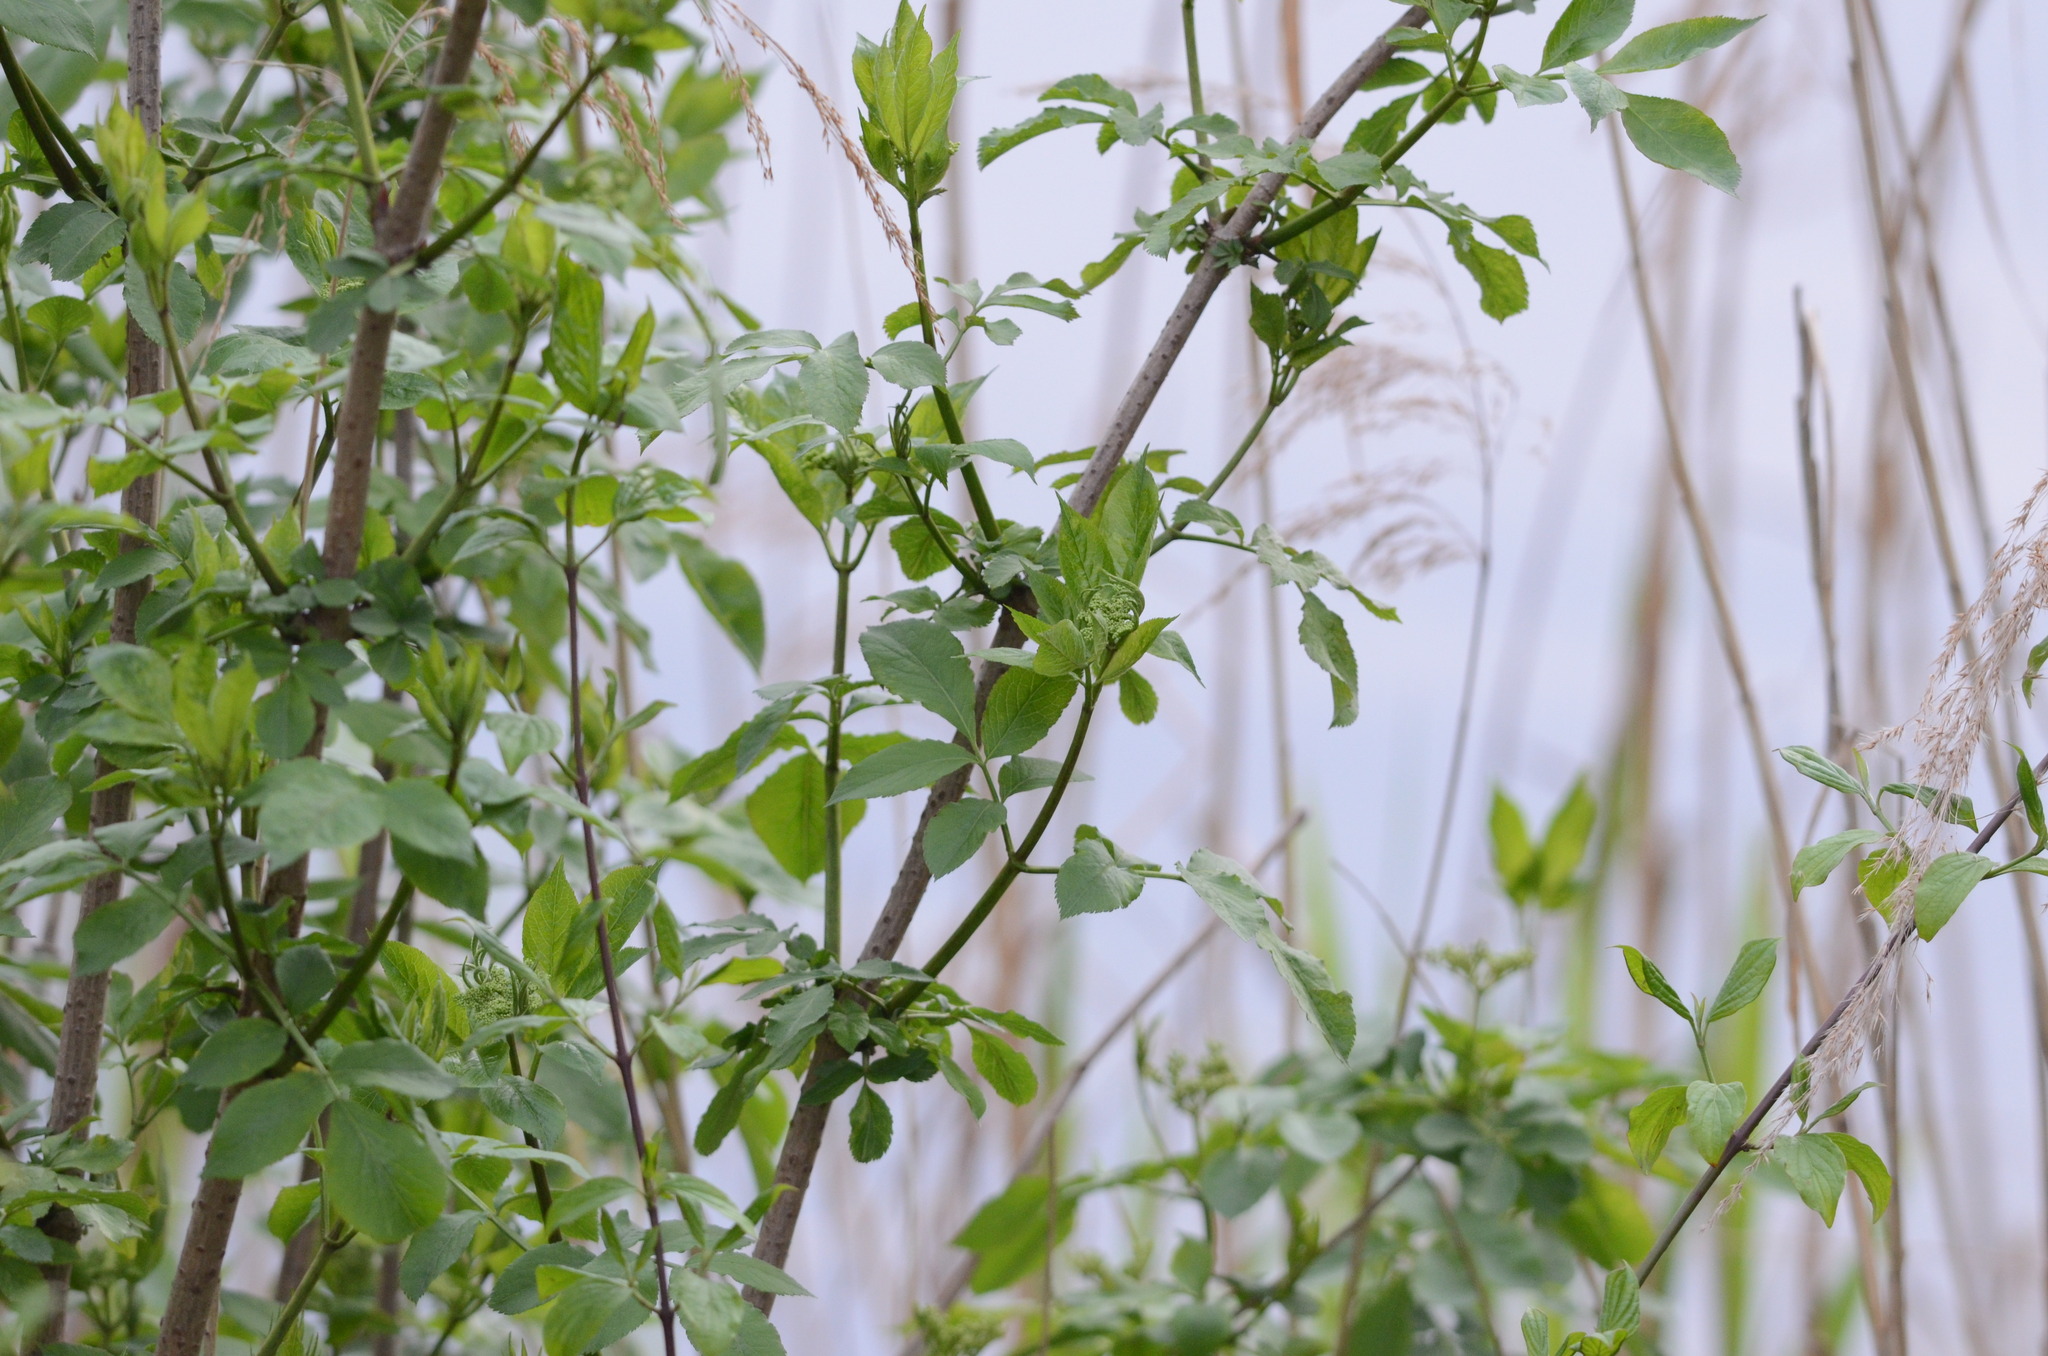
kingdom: Plantae
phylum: Tracheophyta
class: Magnoliopsida
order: Dipsacales
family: Viburnaceae
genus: Sambucus
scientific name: Sambucus nigra
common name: Elder
